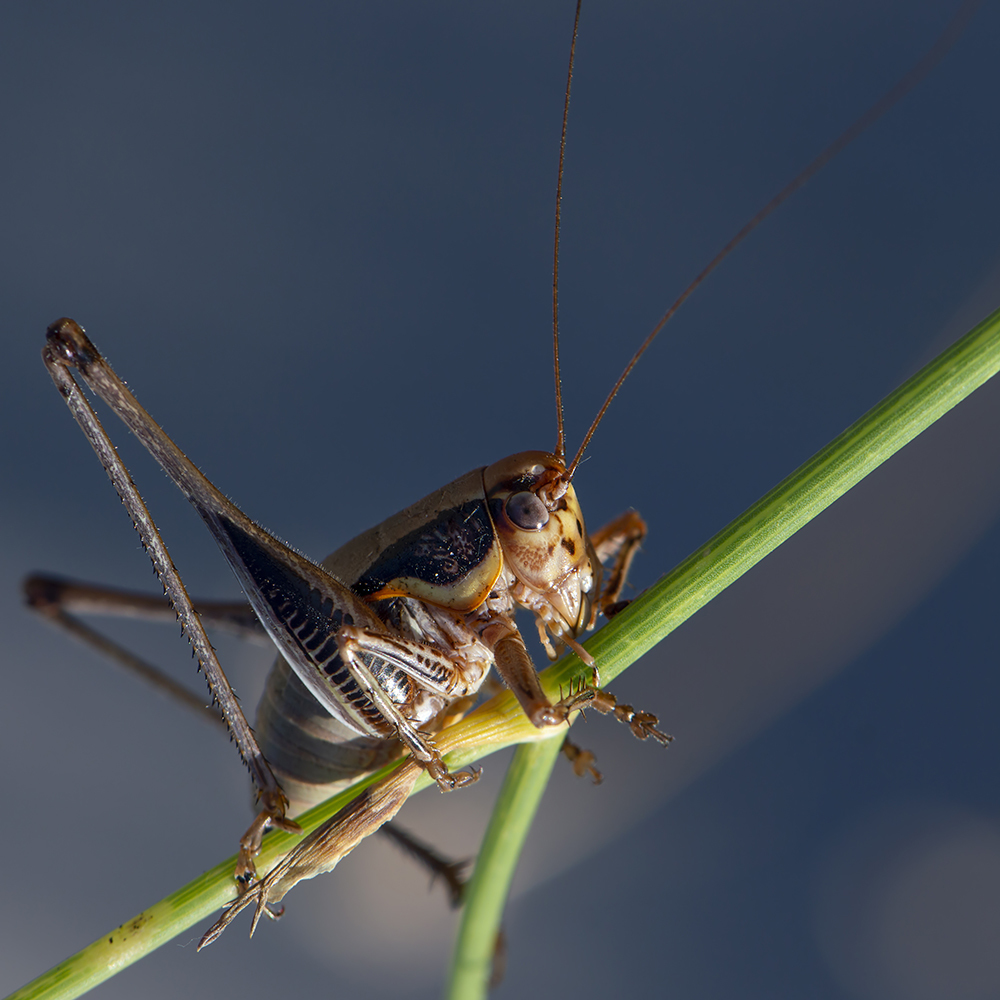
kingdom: Animalia
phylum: Arthropoda
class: Insecta
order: Orthoptera
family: Tettigoniidae
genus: Eupholidoptera
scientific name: Eupholidoptera megastyla
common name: Greek marbled bush-cricket
